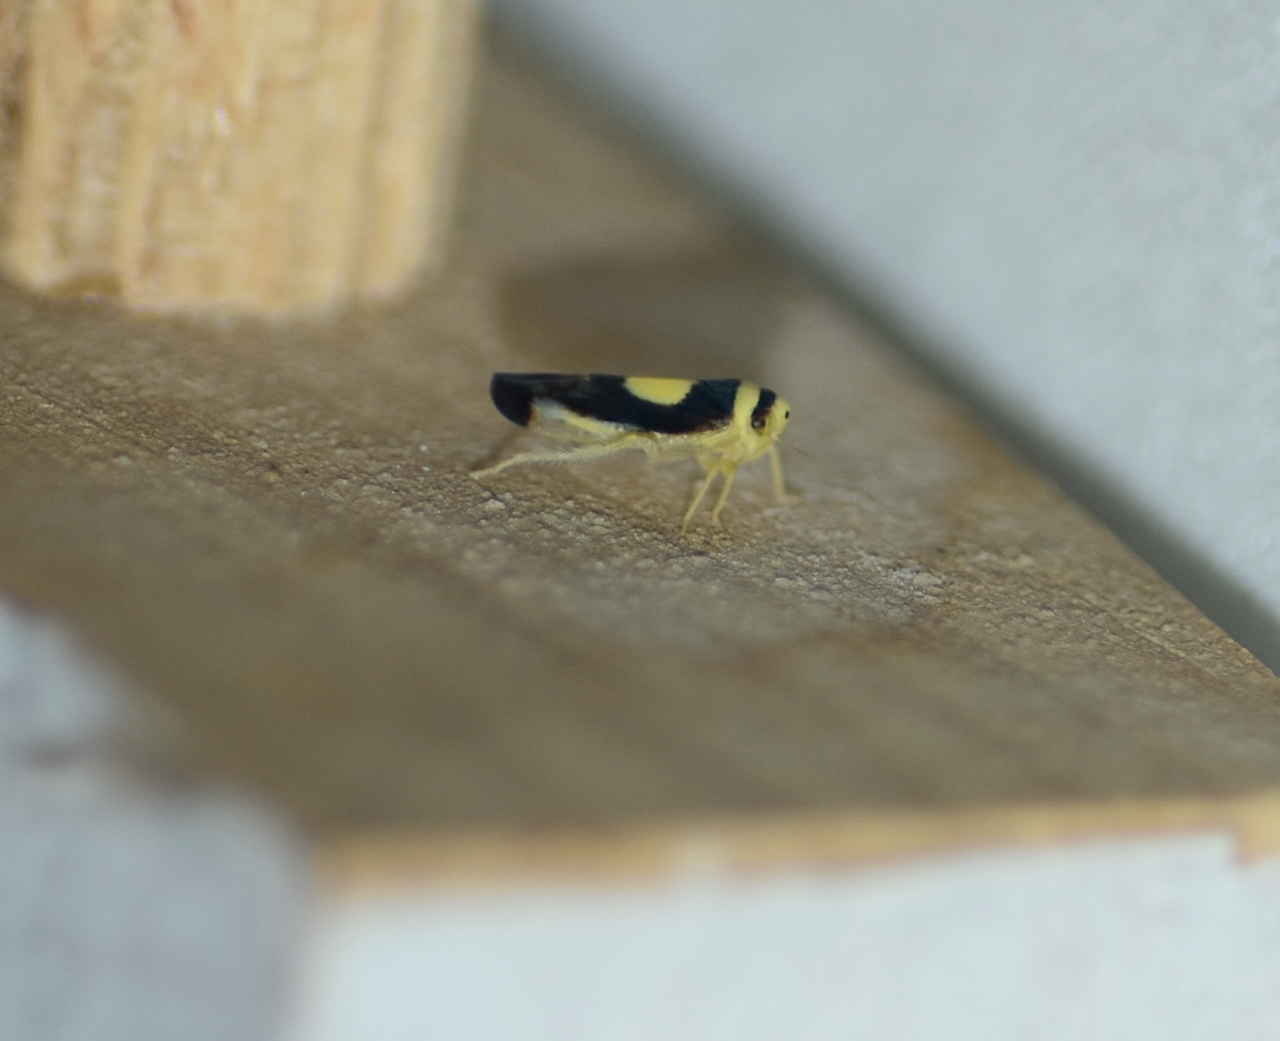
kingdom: Animalia
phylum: Arthropoda
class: Insecta
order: Hemiptera
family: Cicadellidae
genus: Colladonus
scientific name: Colladonus clitellarius
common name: The saddleback leafhopper
